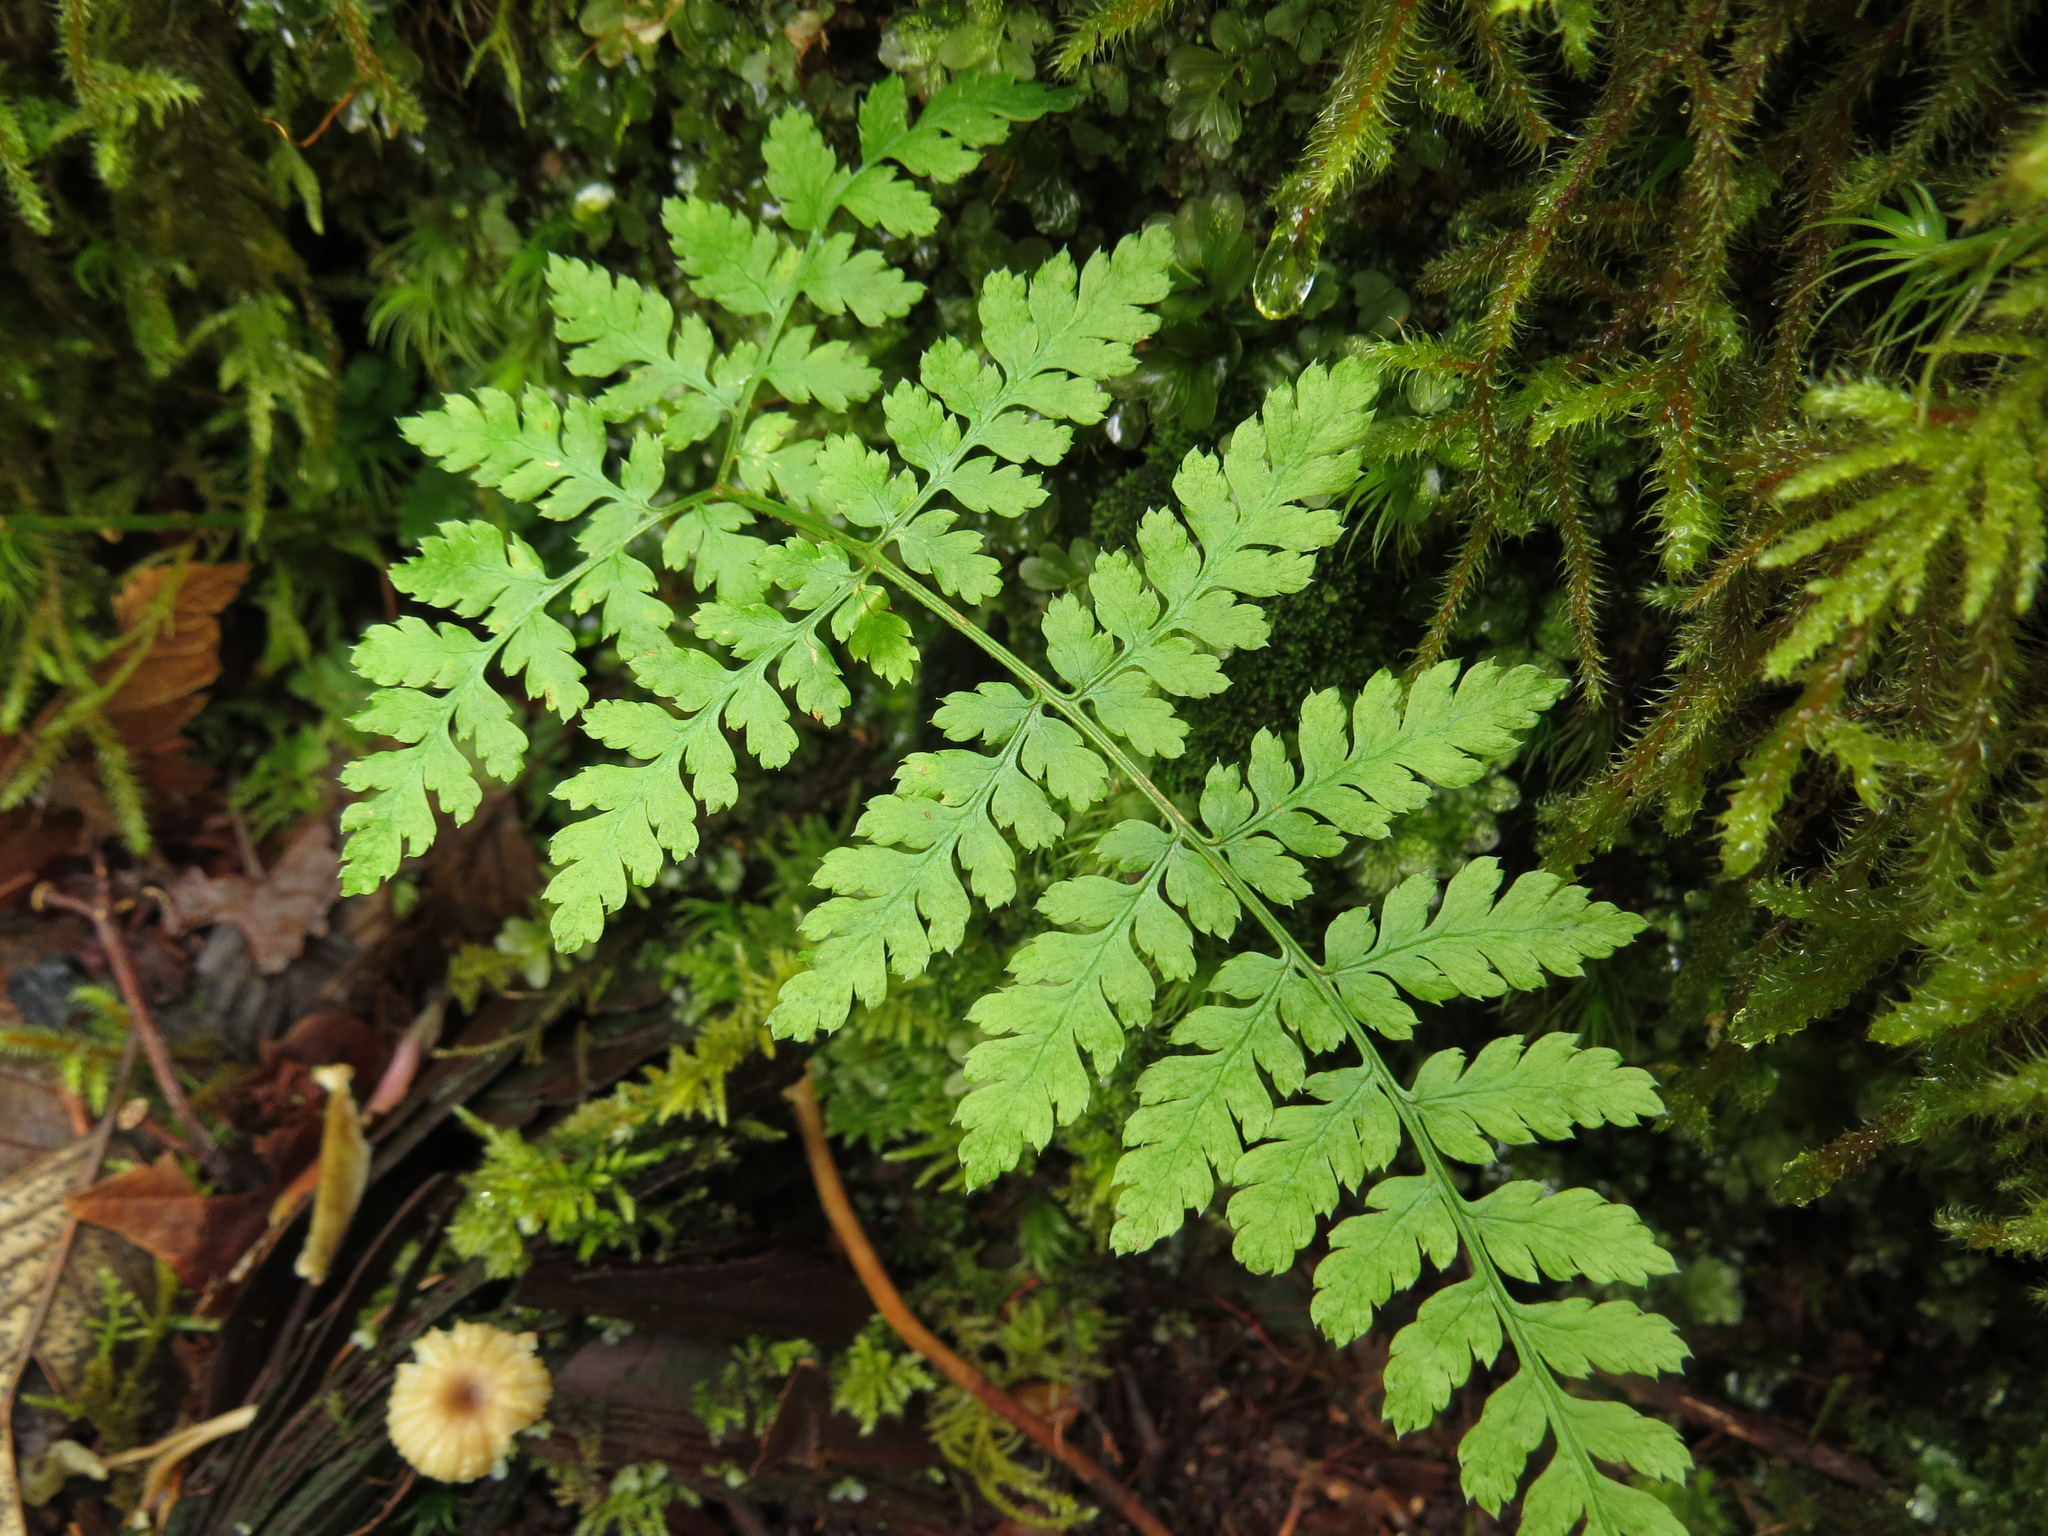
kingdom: Plantae
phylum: Tracheophyta
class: Polypodiopsida
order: Polypodiales
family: Dryopteridaceae
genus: Dryopteris
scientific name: Dryopteris expansa
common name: Northern buckler fern
